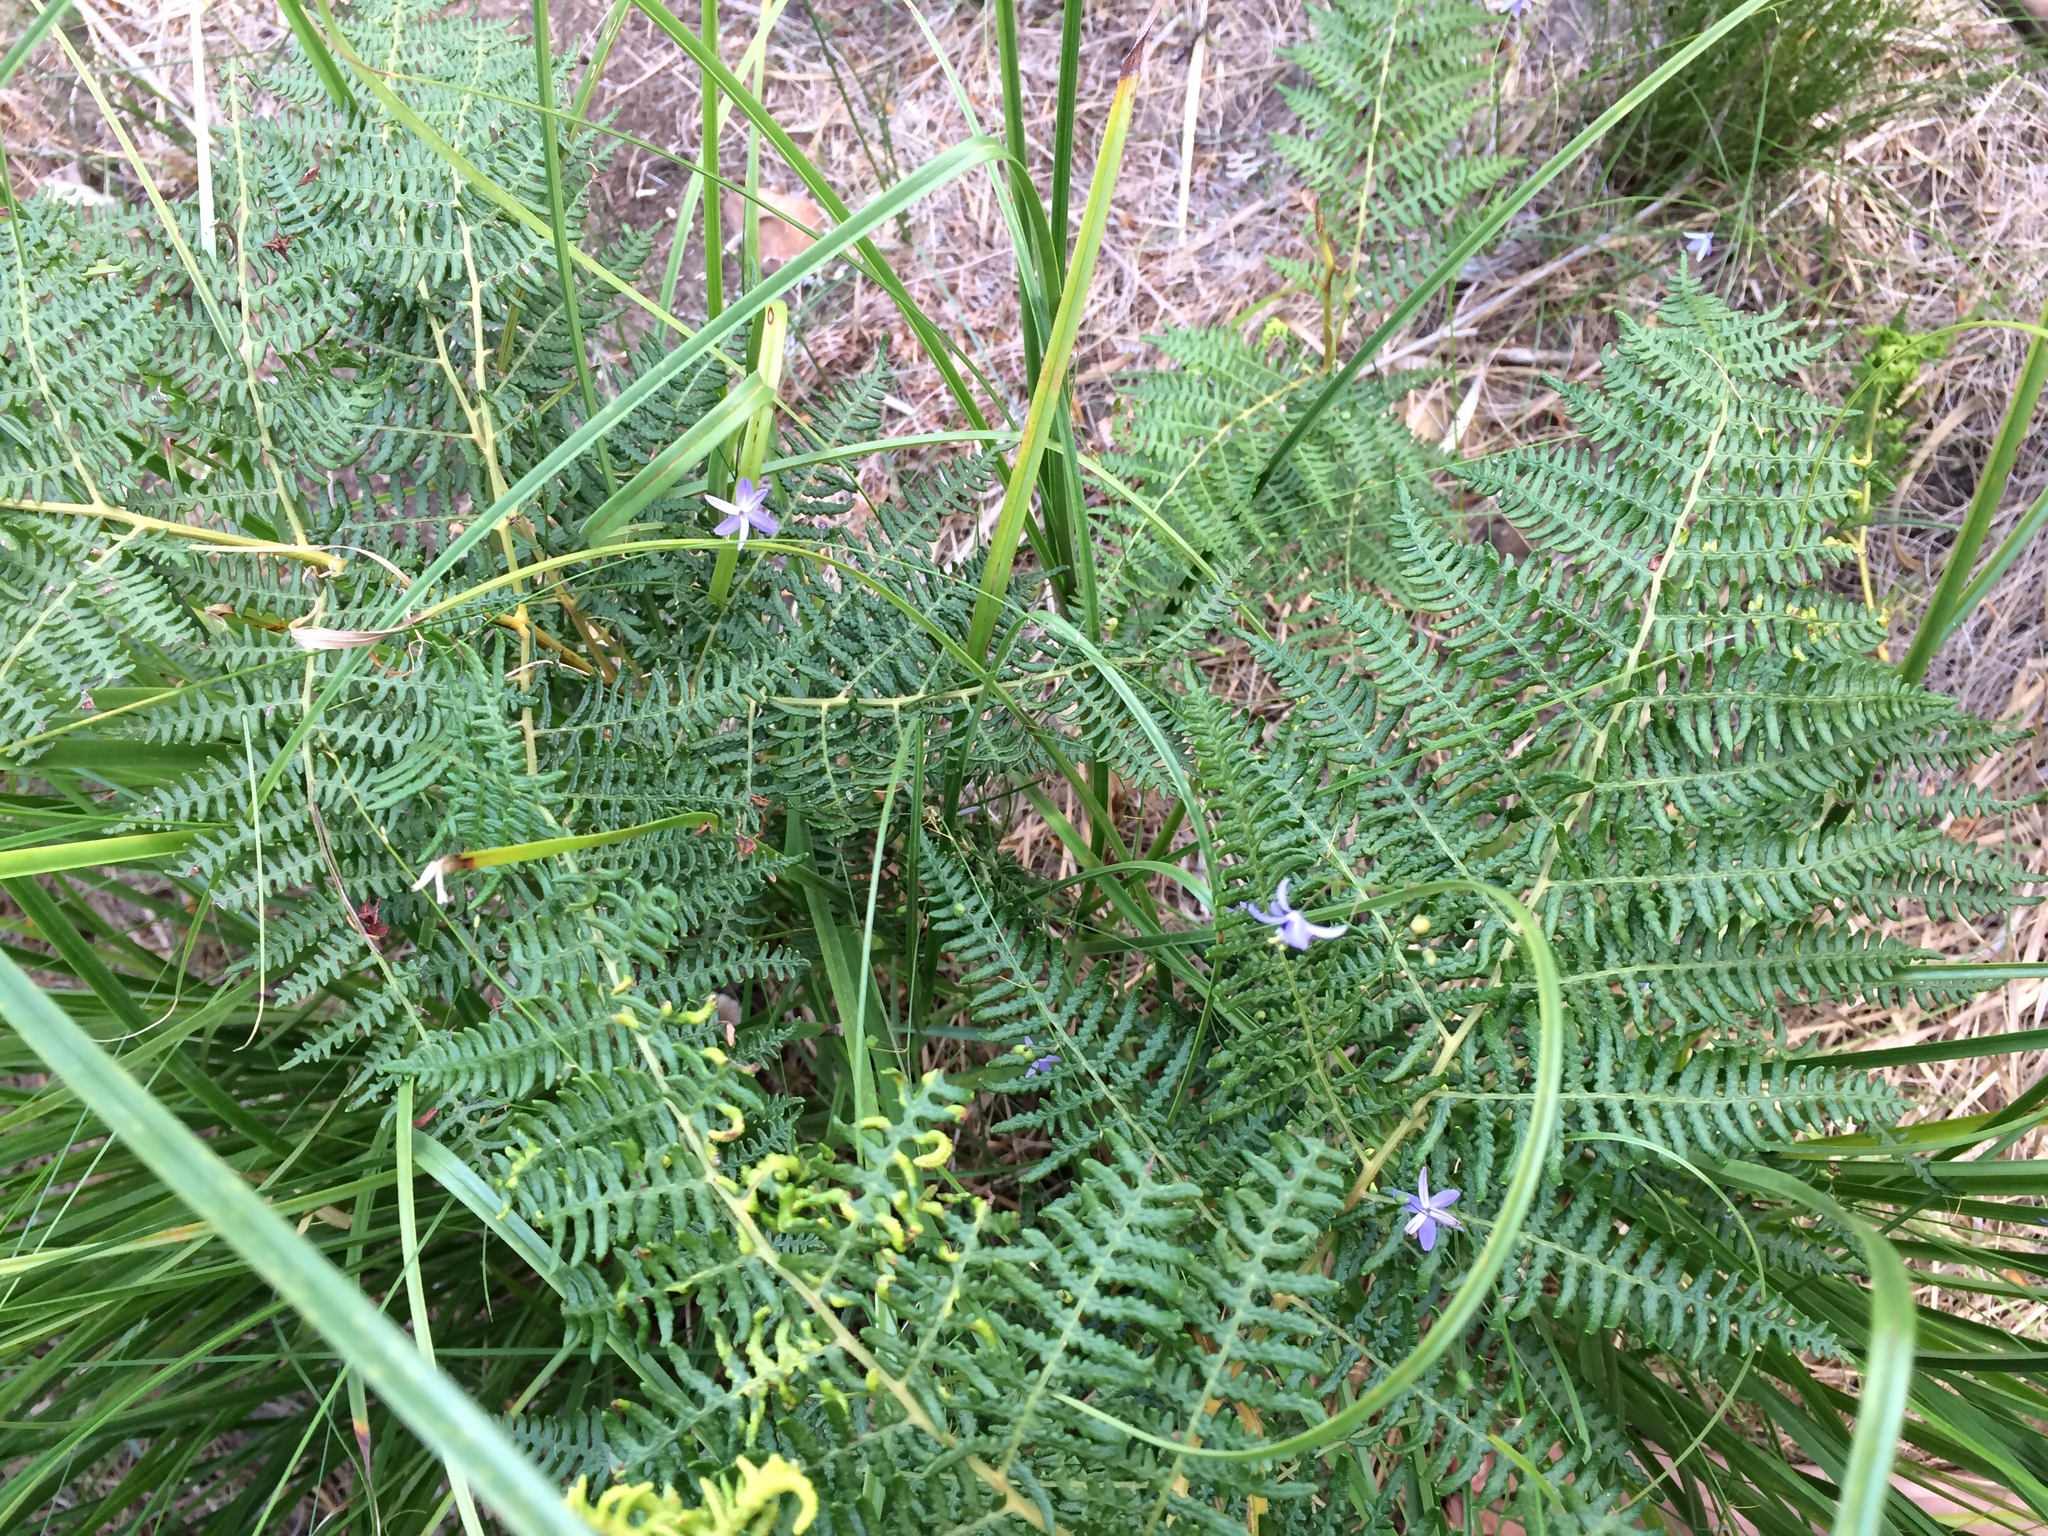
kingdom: Plantae
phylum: Tracheophyta
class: Polypodiopsida
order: Polypodiales
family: Dennstaedtiaceae
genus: Pteridium
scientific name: Pteridium aquilinum
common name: Bracken
